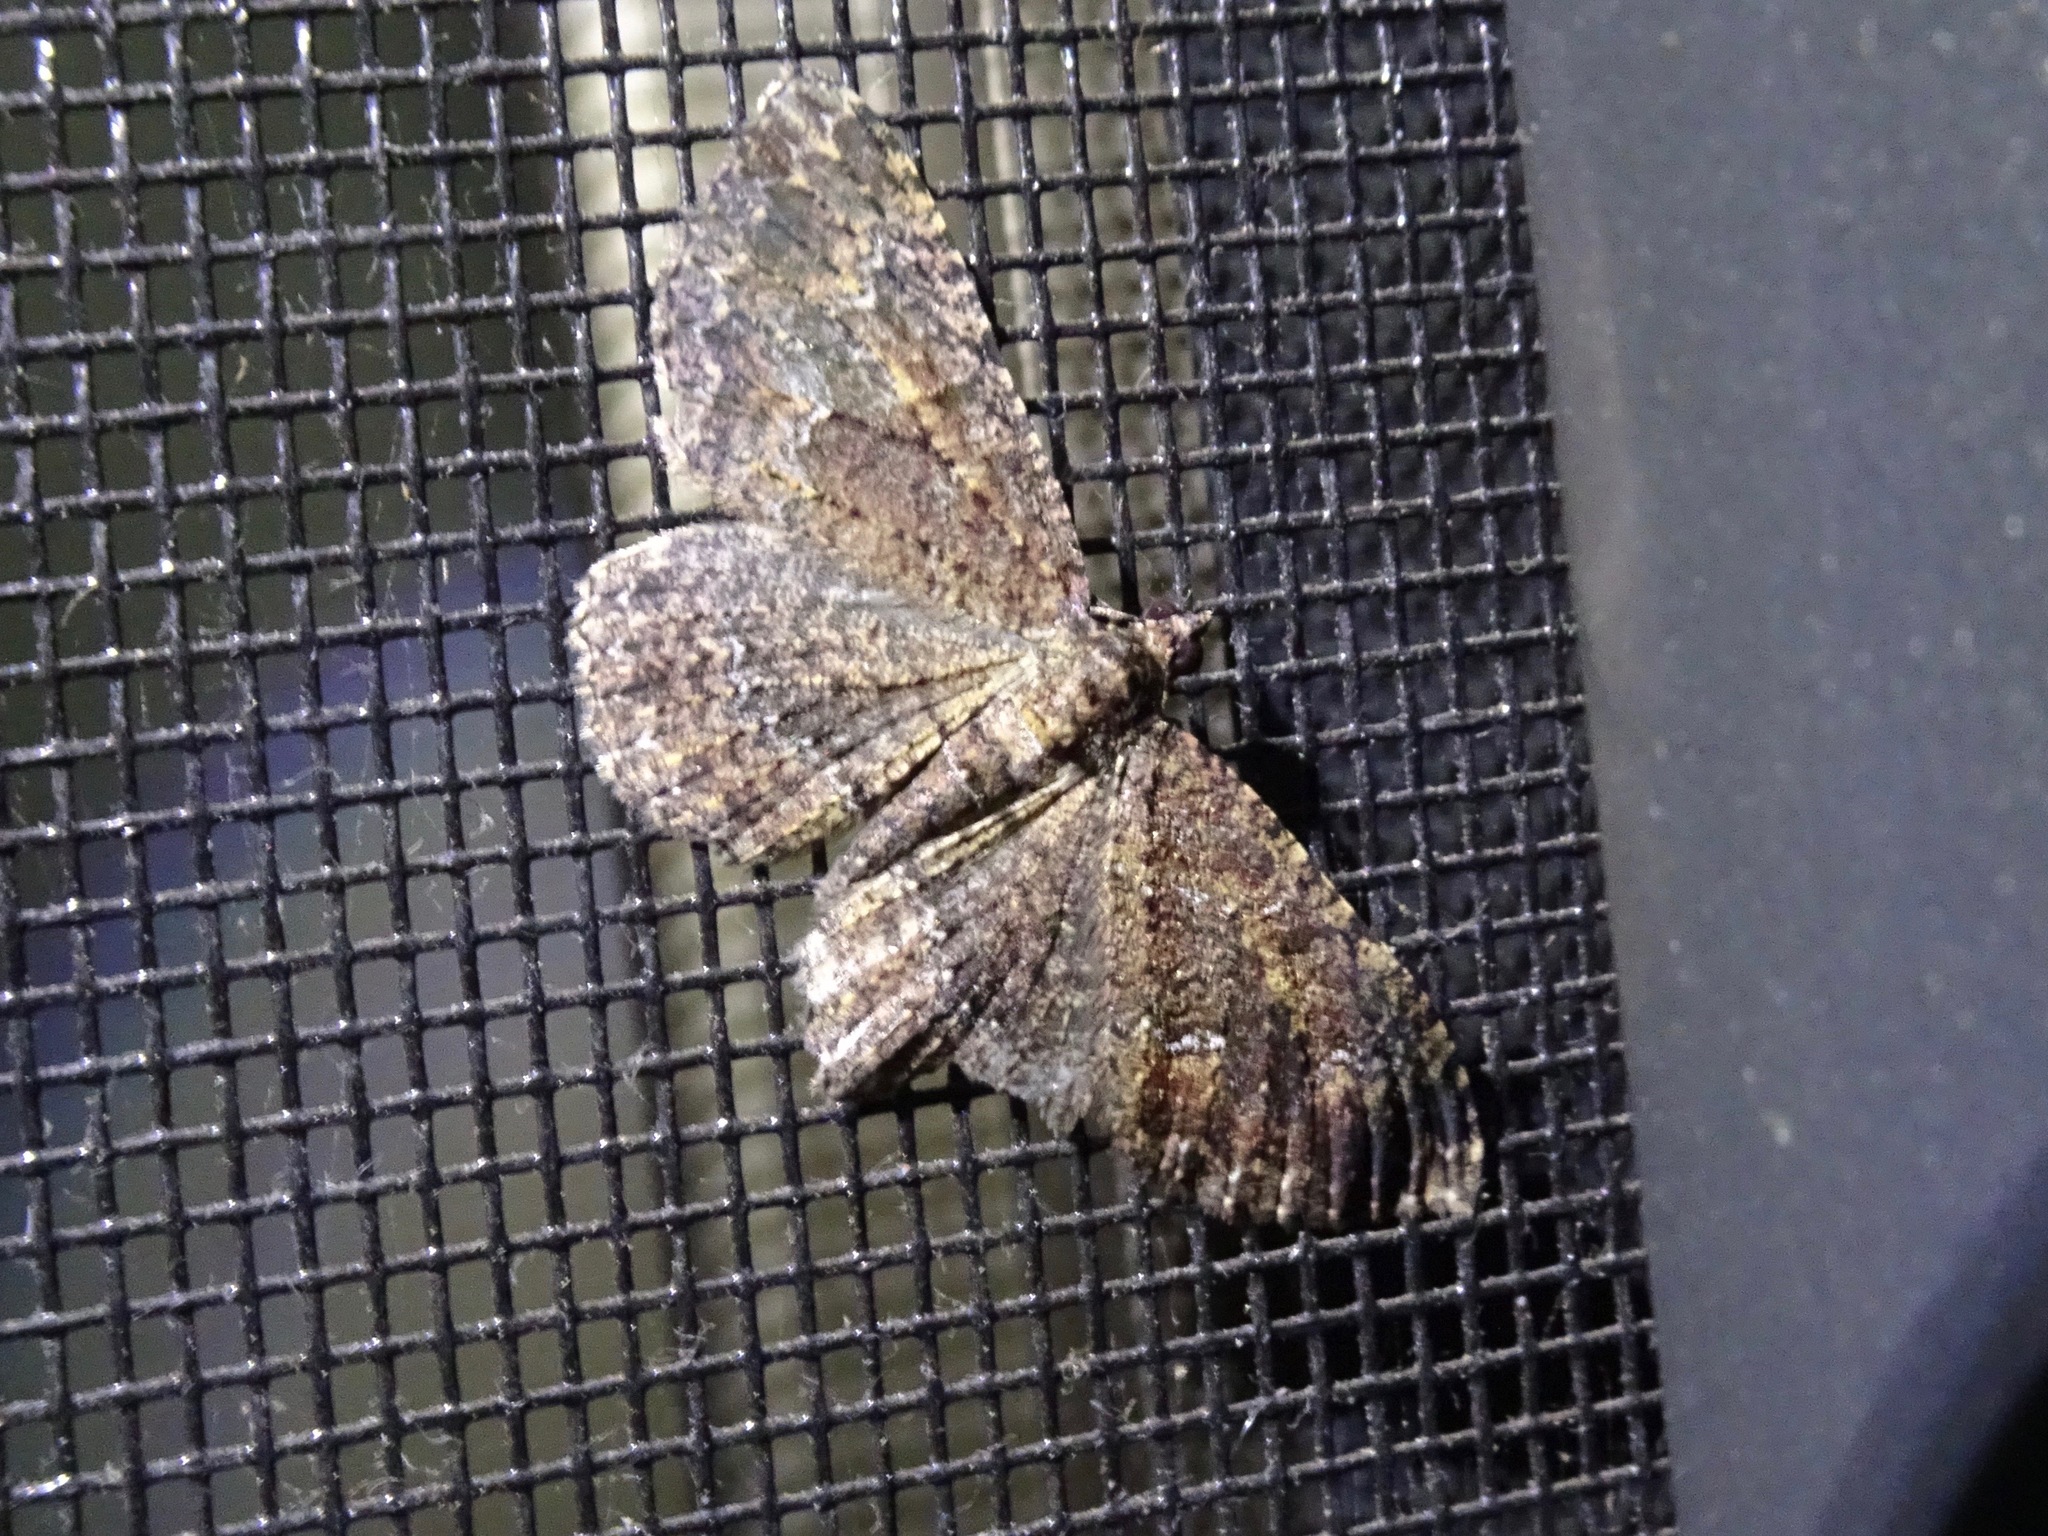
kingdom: Animalia
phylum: Arthropoda
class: Insecta
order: Lepidoptera
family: Geometridae
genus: Disclisioprocta
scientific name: Disclisioprocta stellata
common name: Somber carpet
